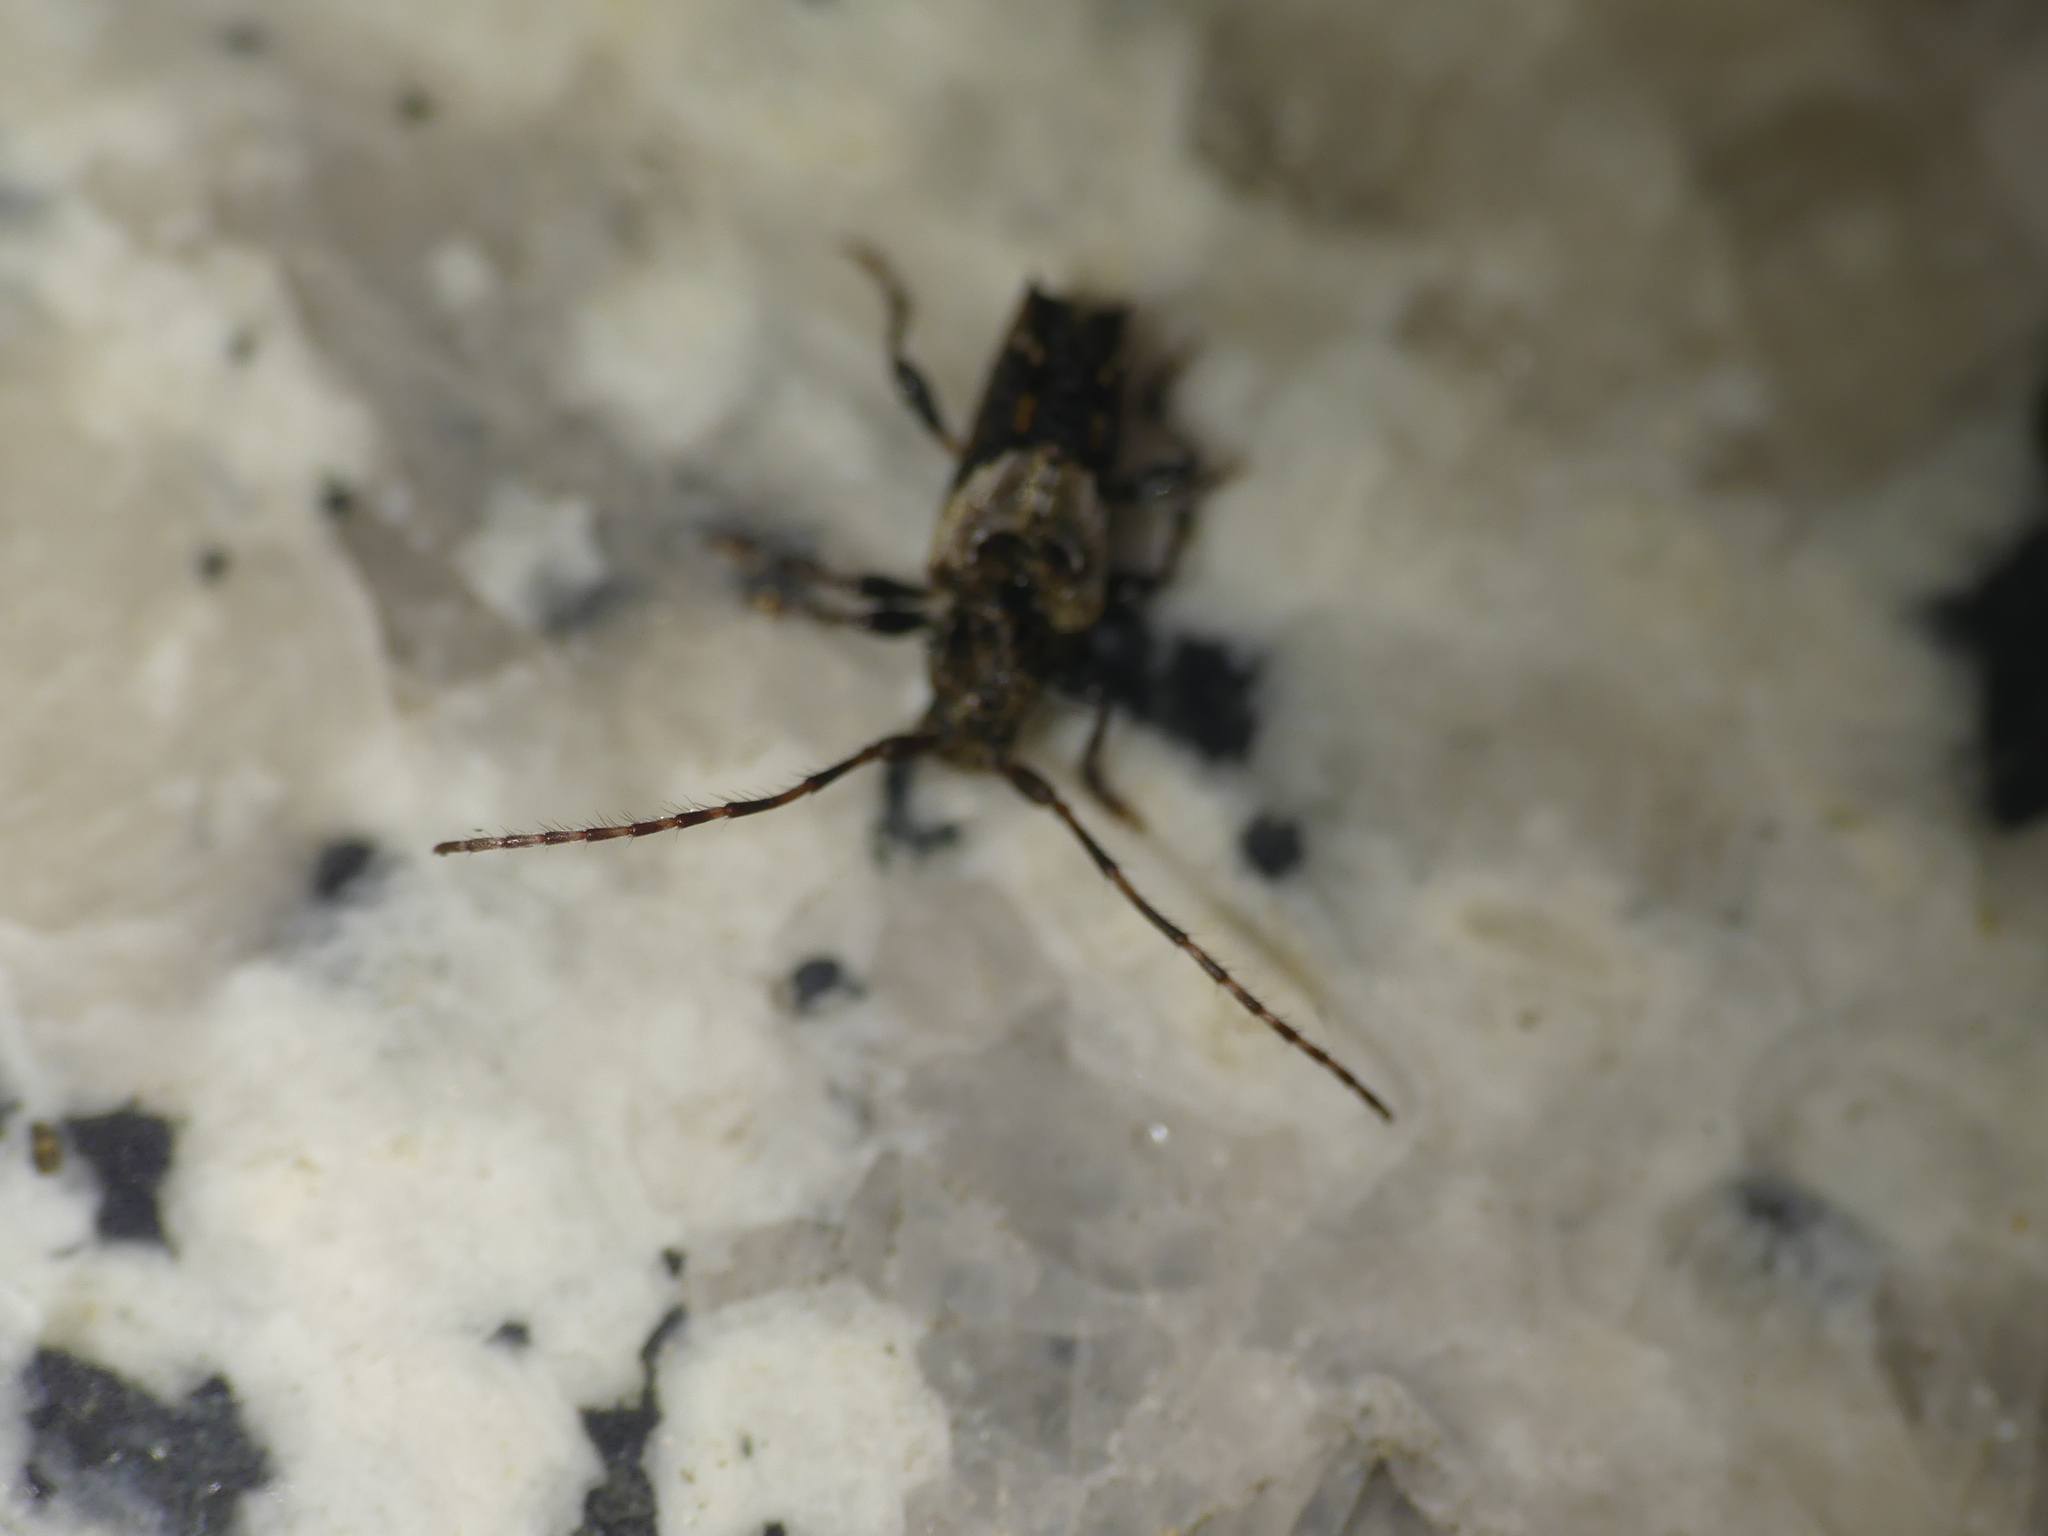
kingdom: Animalia
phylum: Arthropoda
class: Insecta
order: Coleoptera
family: Cerambycidae
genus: Pogonocherus
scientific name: Pogonocherus hispidus
